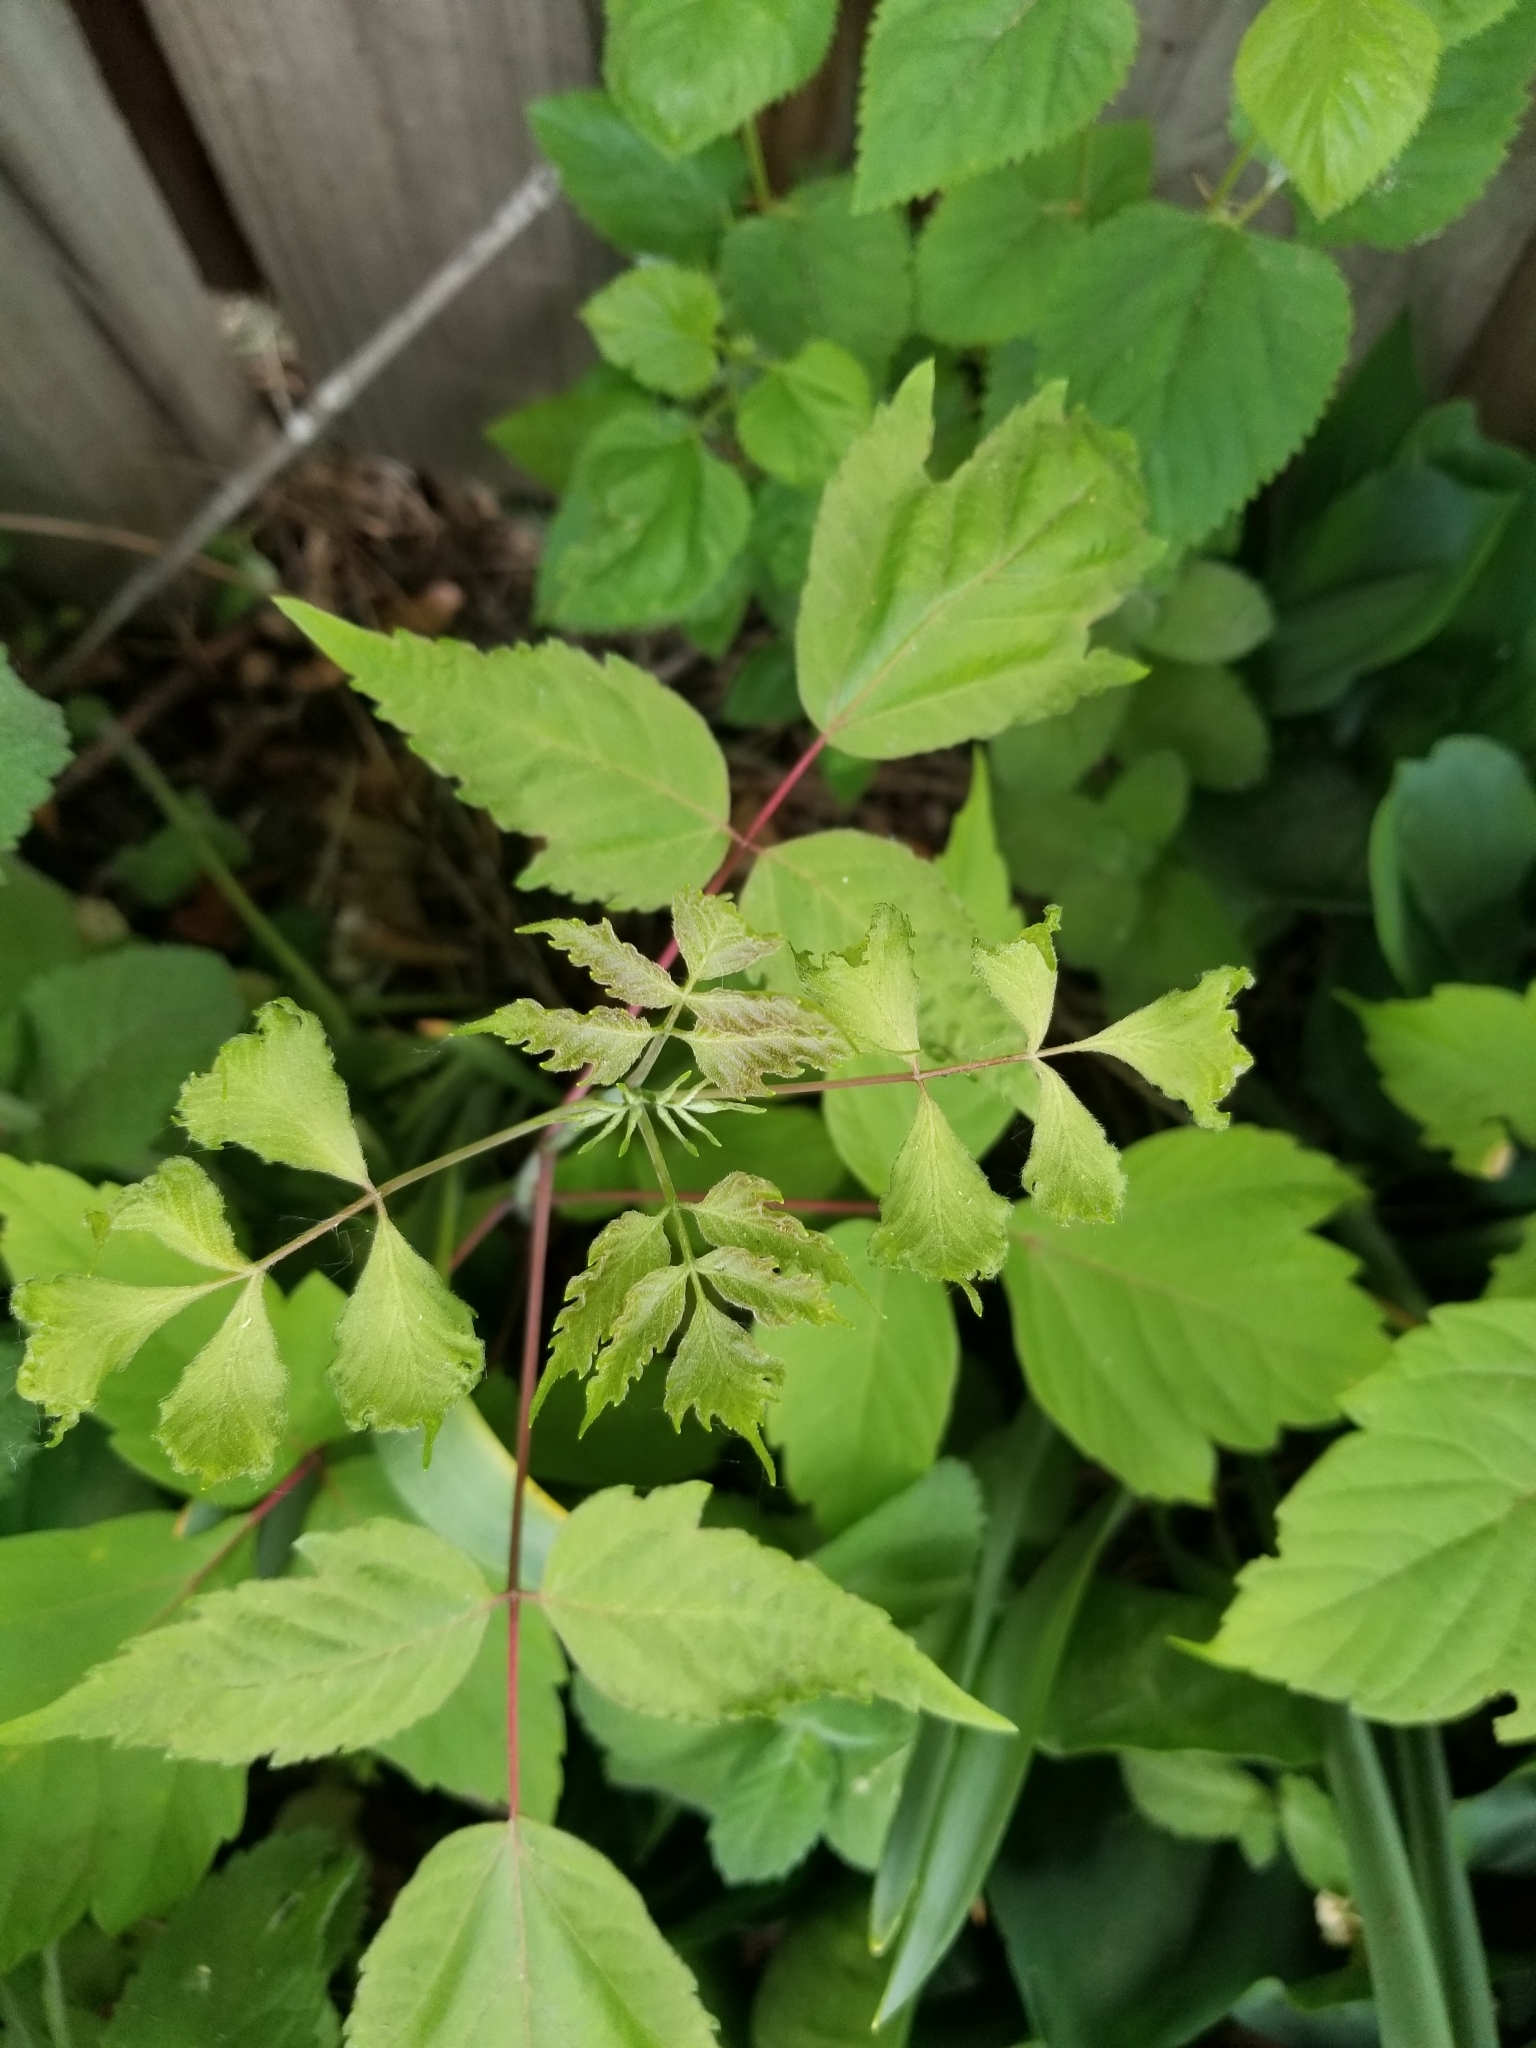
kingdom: Plantae
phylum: Tracheophyta
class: Magnoliopsida
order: Sapindales
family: Sapindaceae
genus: Acer
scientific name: Acer negundo
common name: Ashleaf maple
